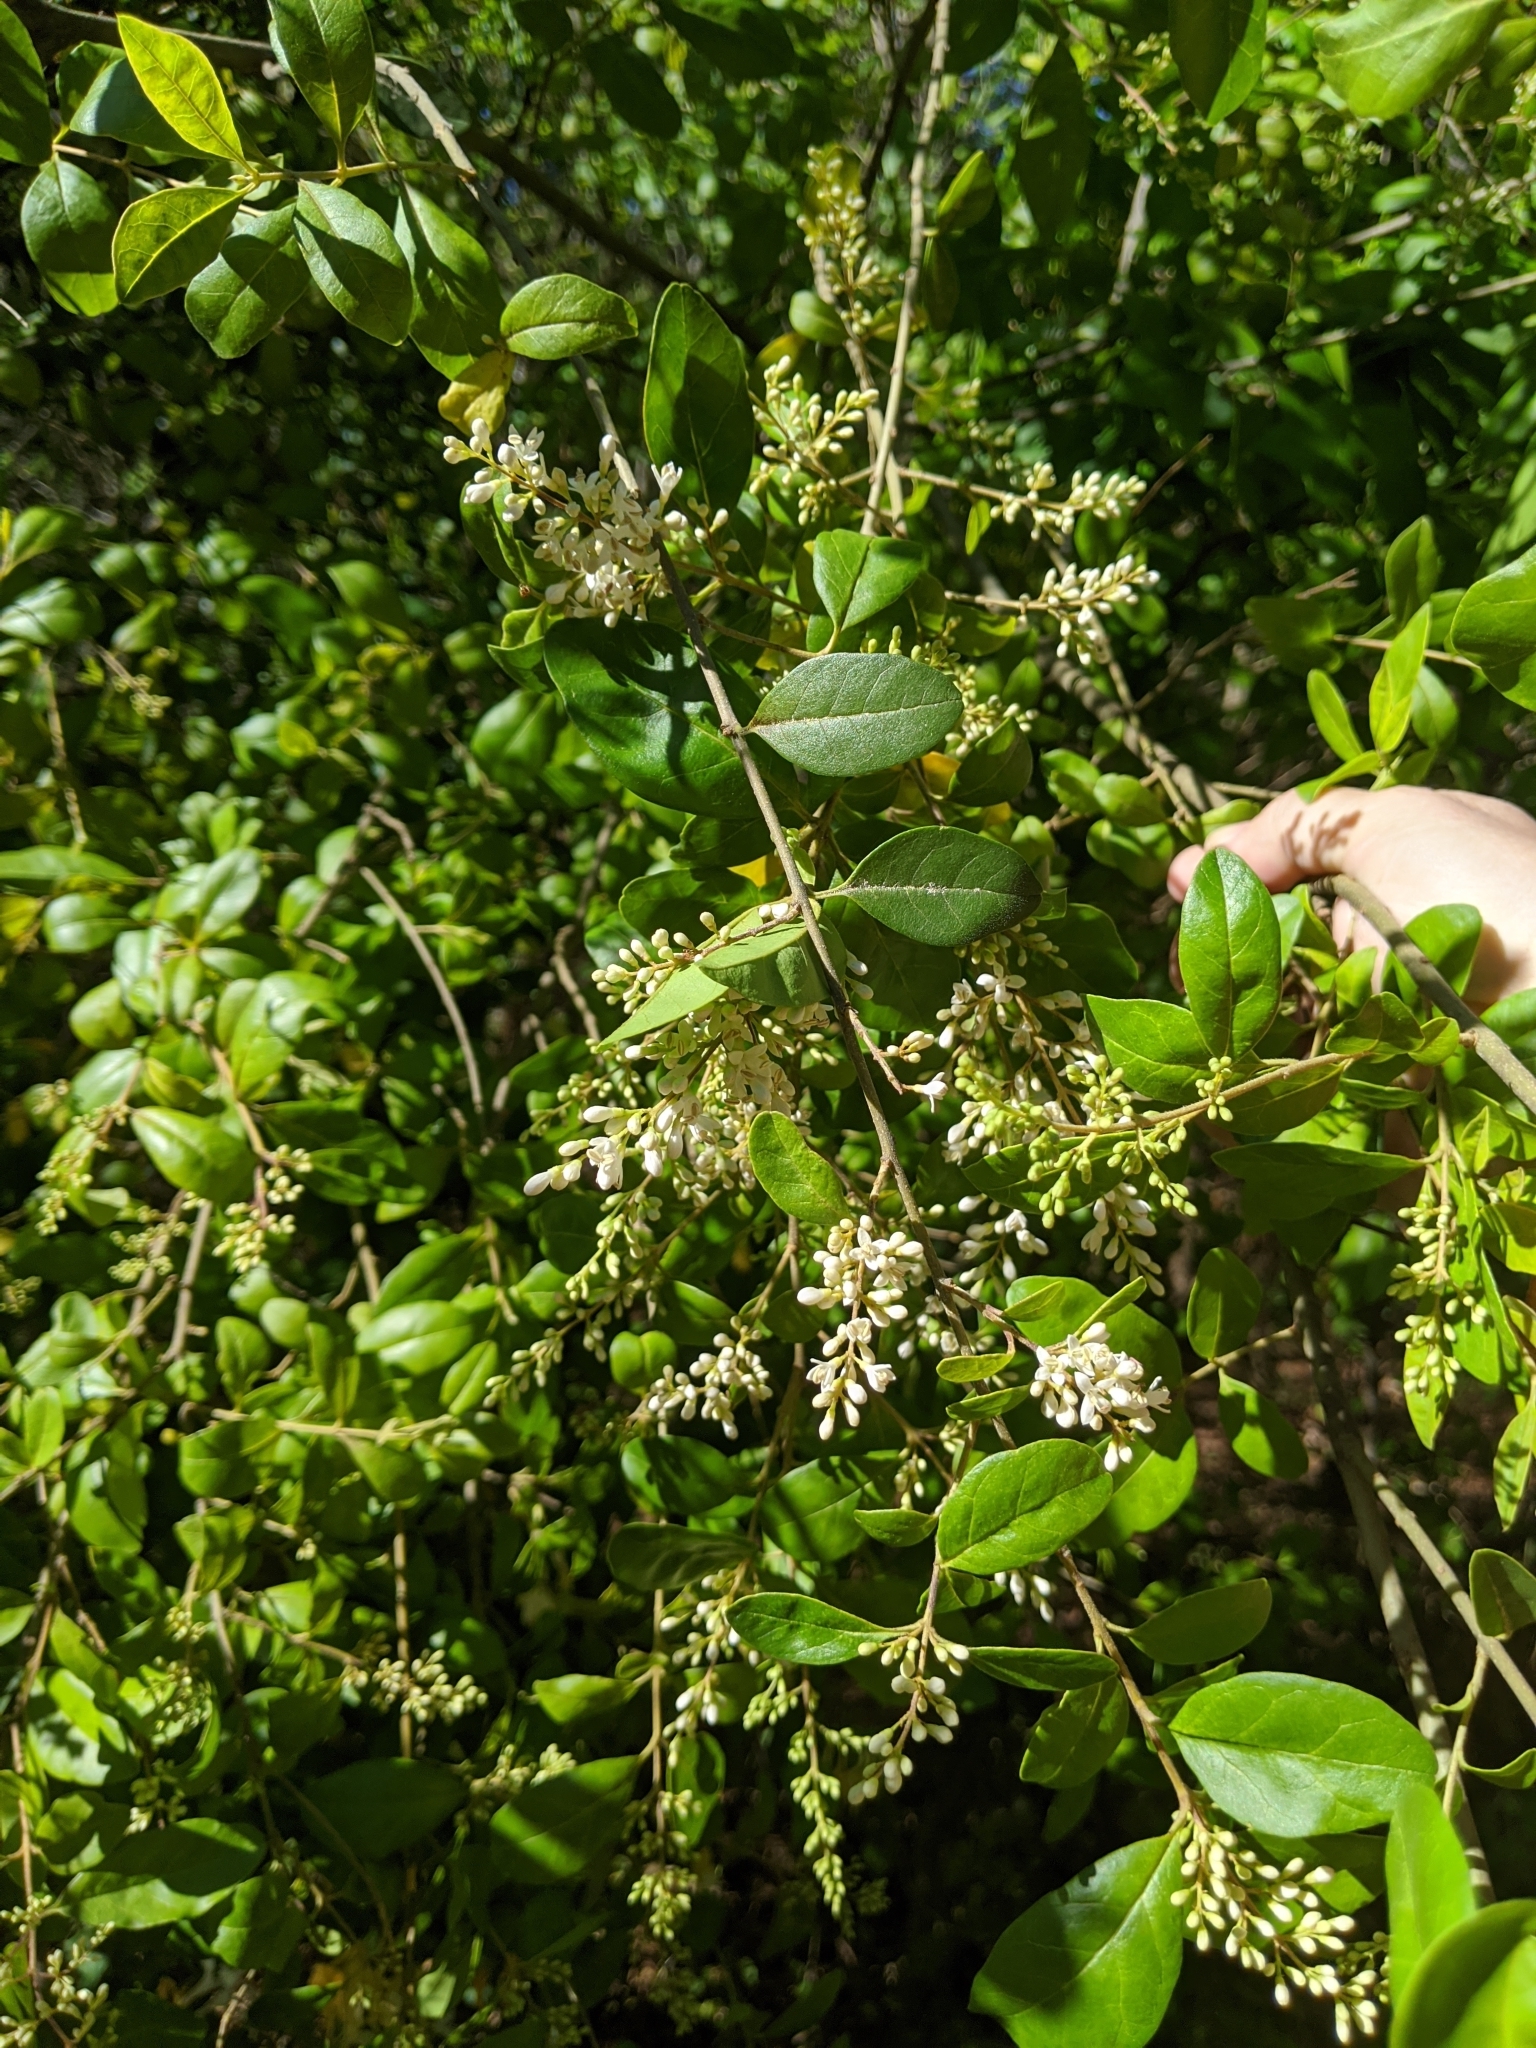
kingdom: Plantae
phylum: Tracheophyta
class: Magnoliopsida
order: Lamiales
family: Oleaceae
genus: Ligustrum
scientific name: Ligustrum sinense
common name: Chinese privet
